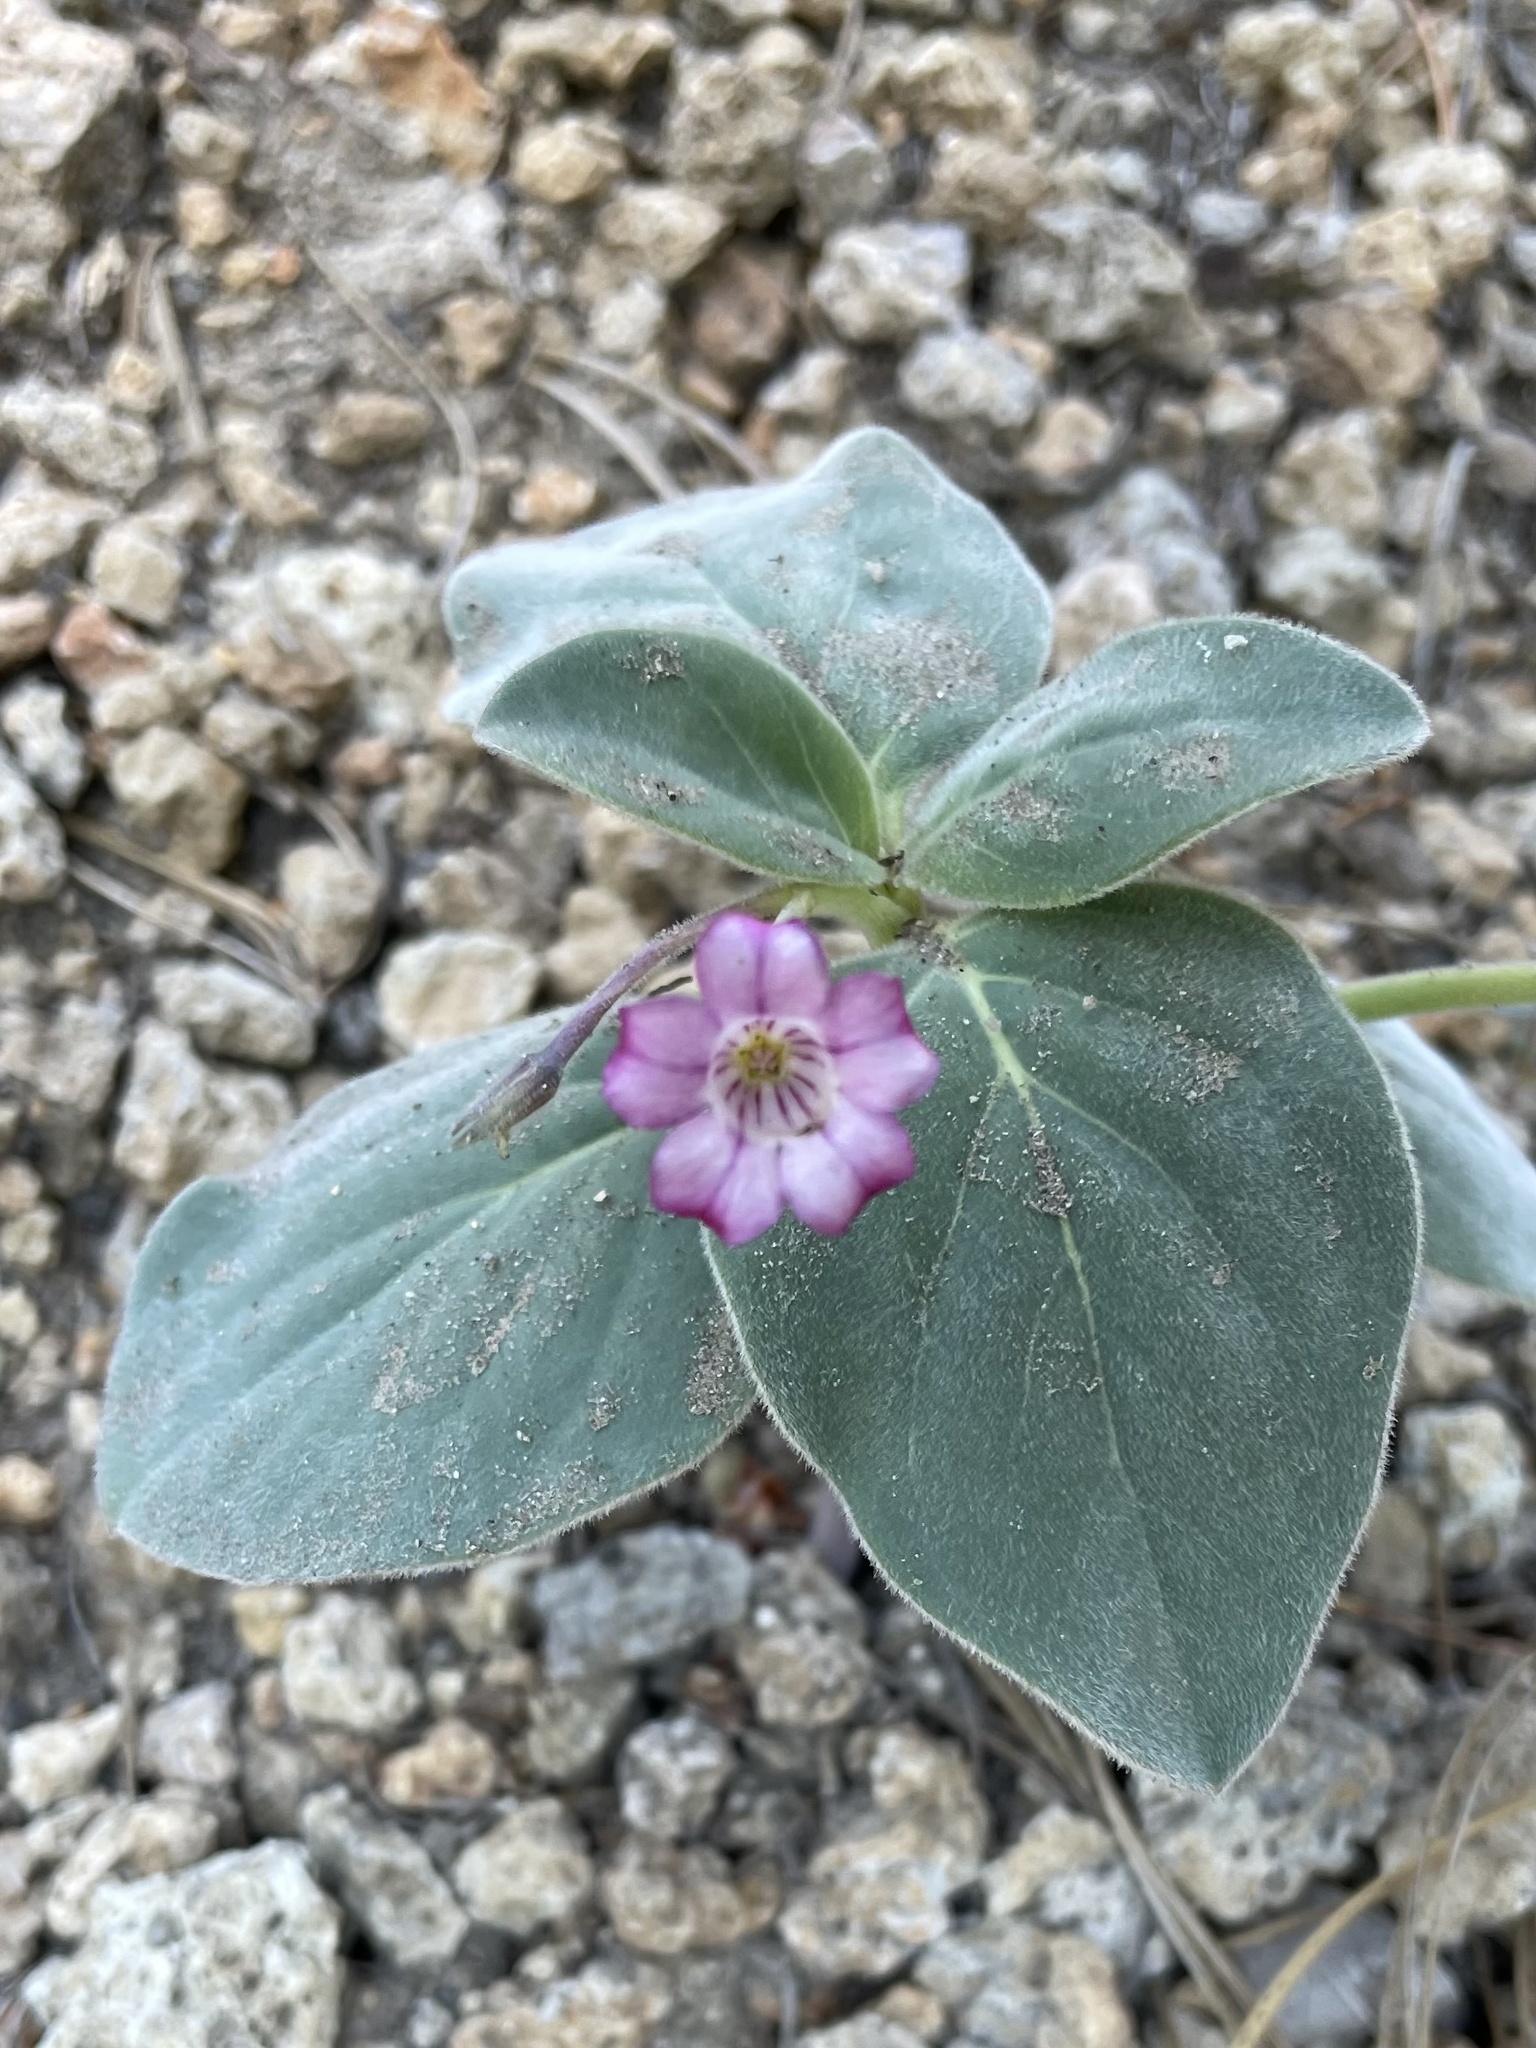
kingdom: Plantae
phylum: Tracheophyta
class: Magnoliopsida
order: Gentianales
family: Apocynaceae
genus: Cycladenia
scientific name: Cycladenia humilis
